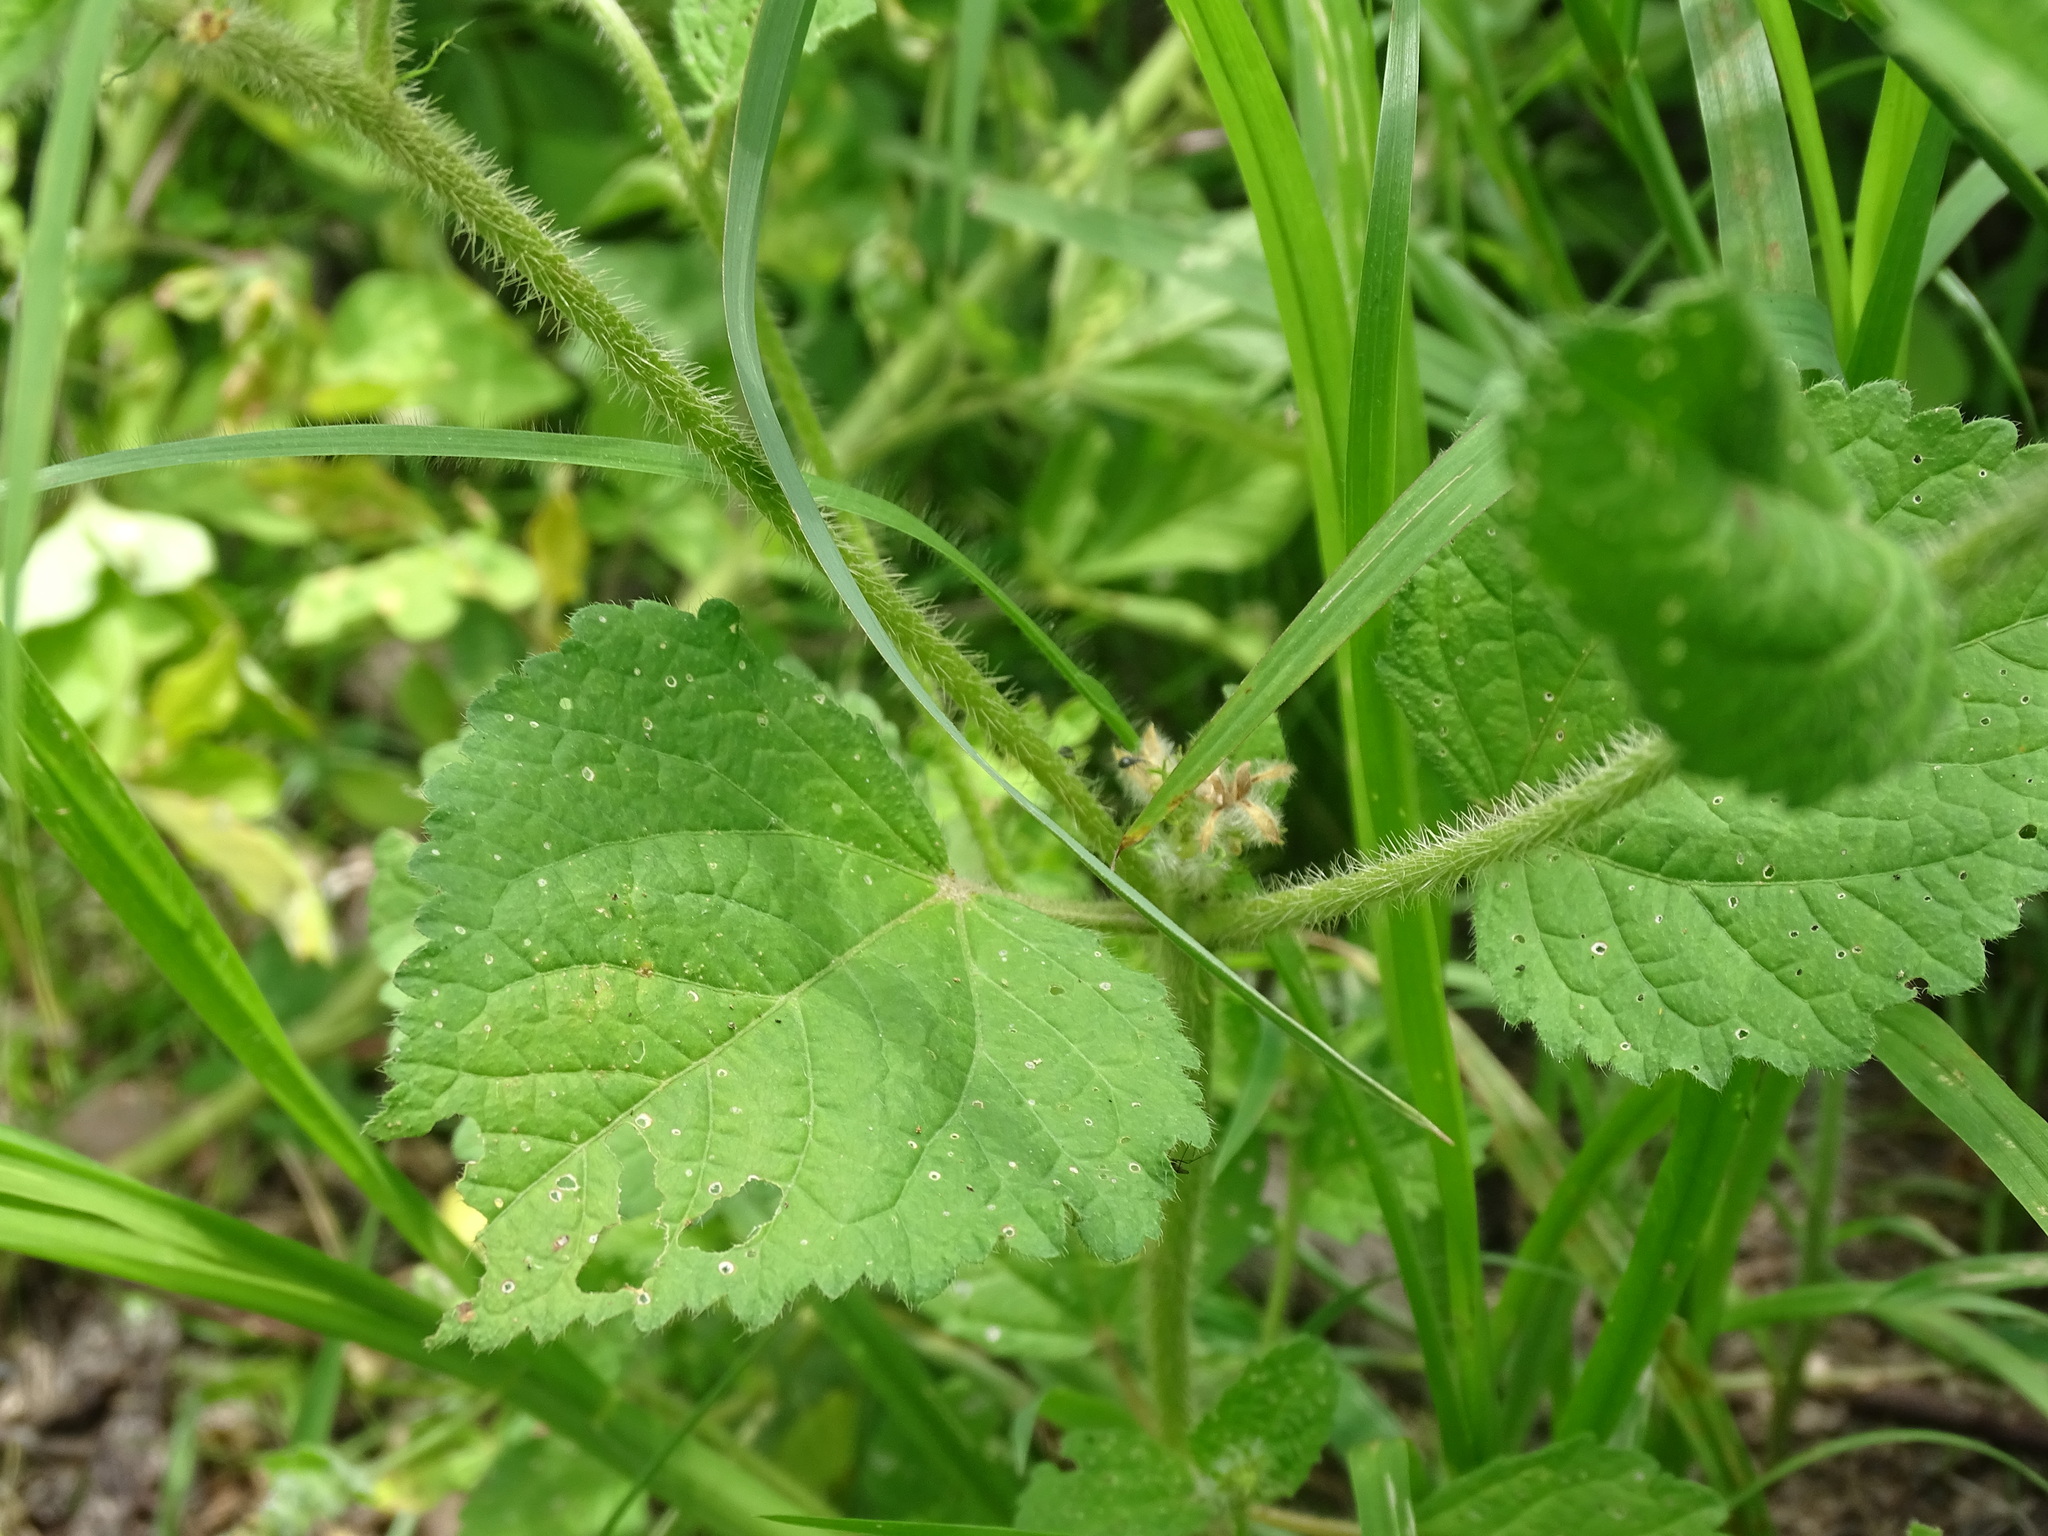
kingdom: Plantae
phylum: Tracheophyta
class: Magnoliopsida
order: Malpighiales
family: Euphorbiaceae
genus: Croton
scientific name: Croton hirtus
